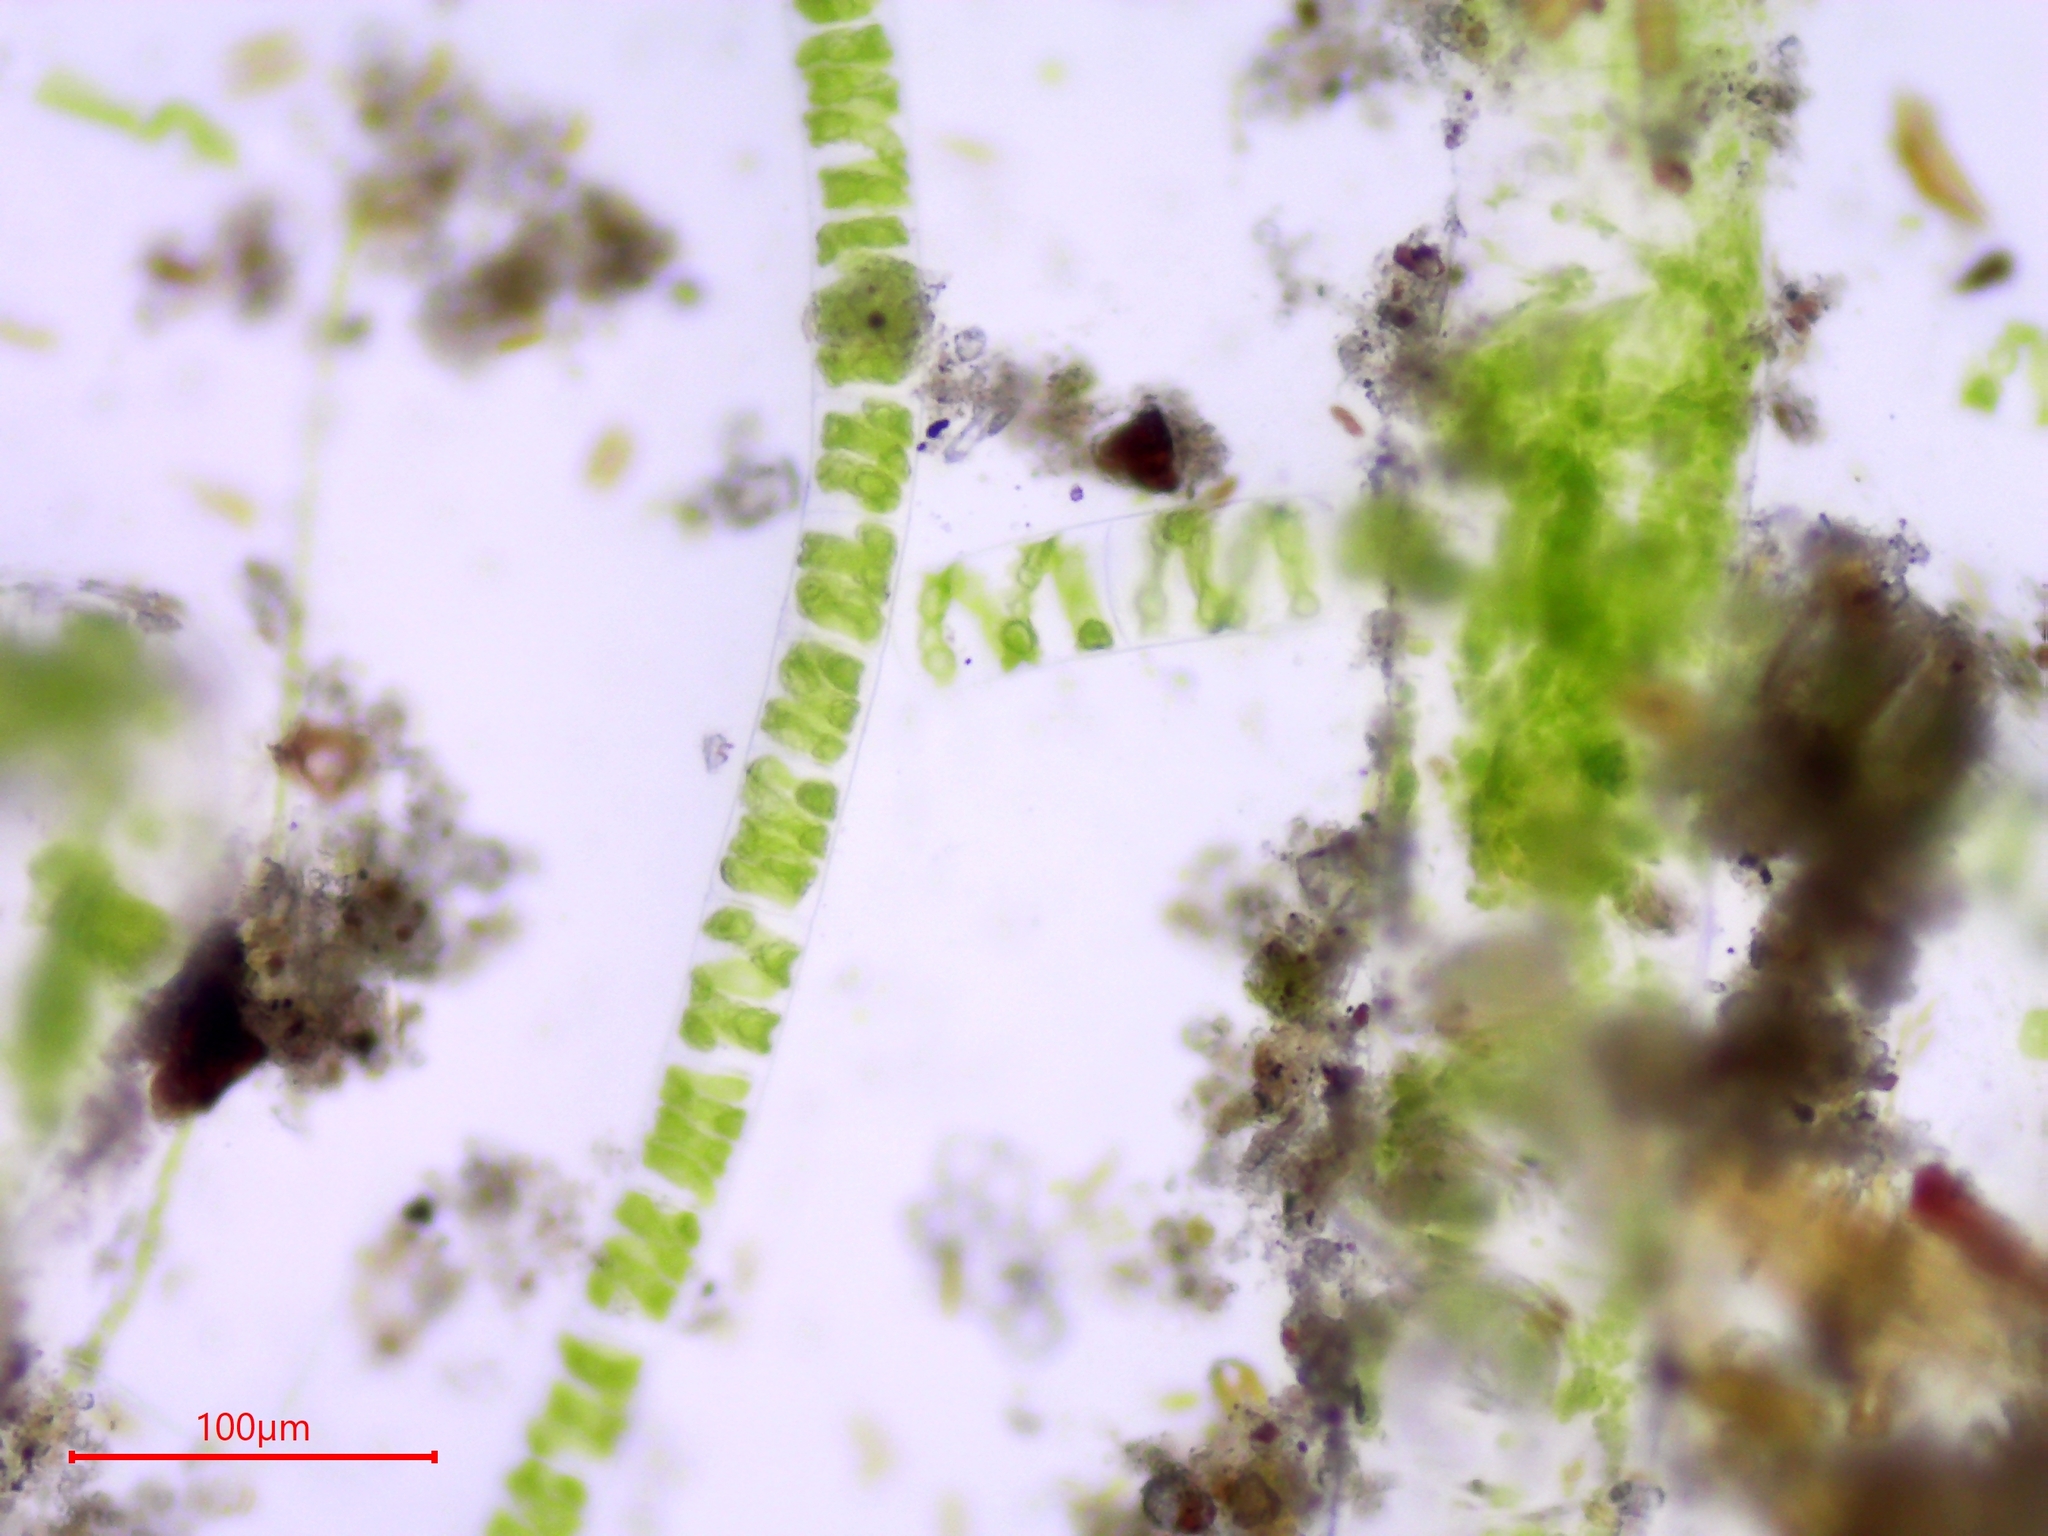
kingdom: Plantae
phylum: Charophyta
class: Zygnematophyceae
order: Zygnematales
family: Zygnemataceae
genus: Spirogyra
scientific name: Spirogyra
